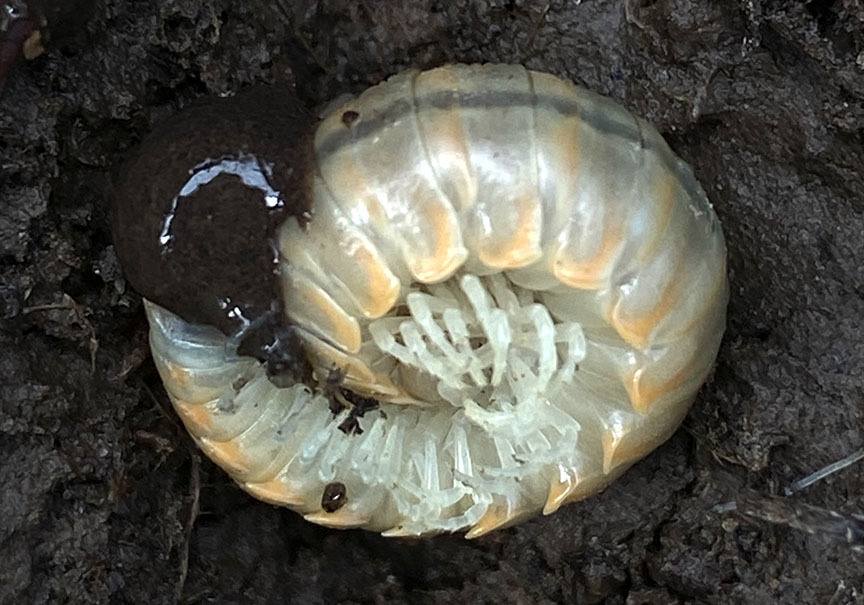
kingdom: Animalia
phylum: Arthropoda
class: Diplopoda
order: Polydesmida
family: Xystodesmidae
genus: Xystocheir
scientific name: Xystocheir dissecta
